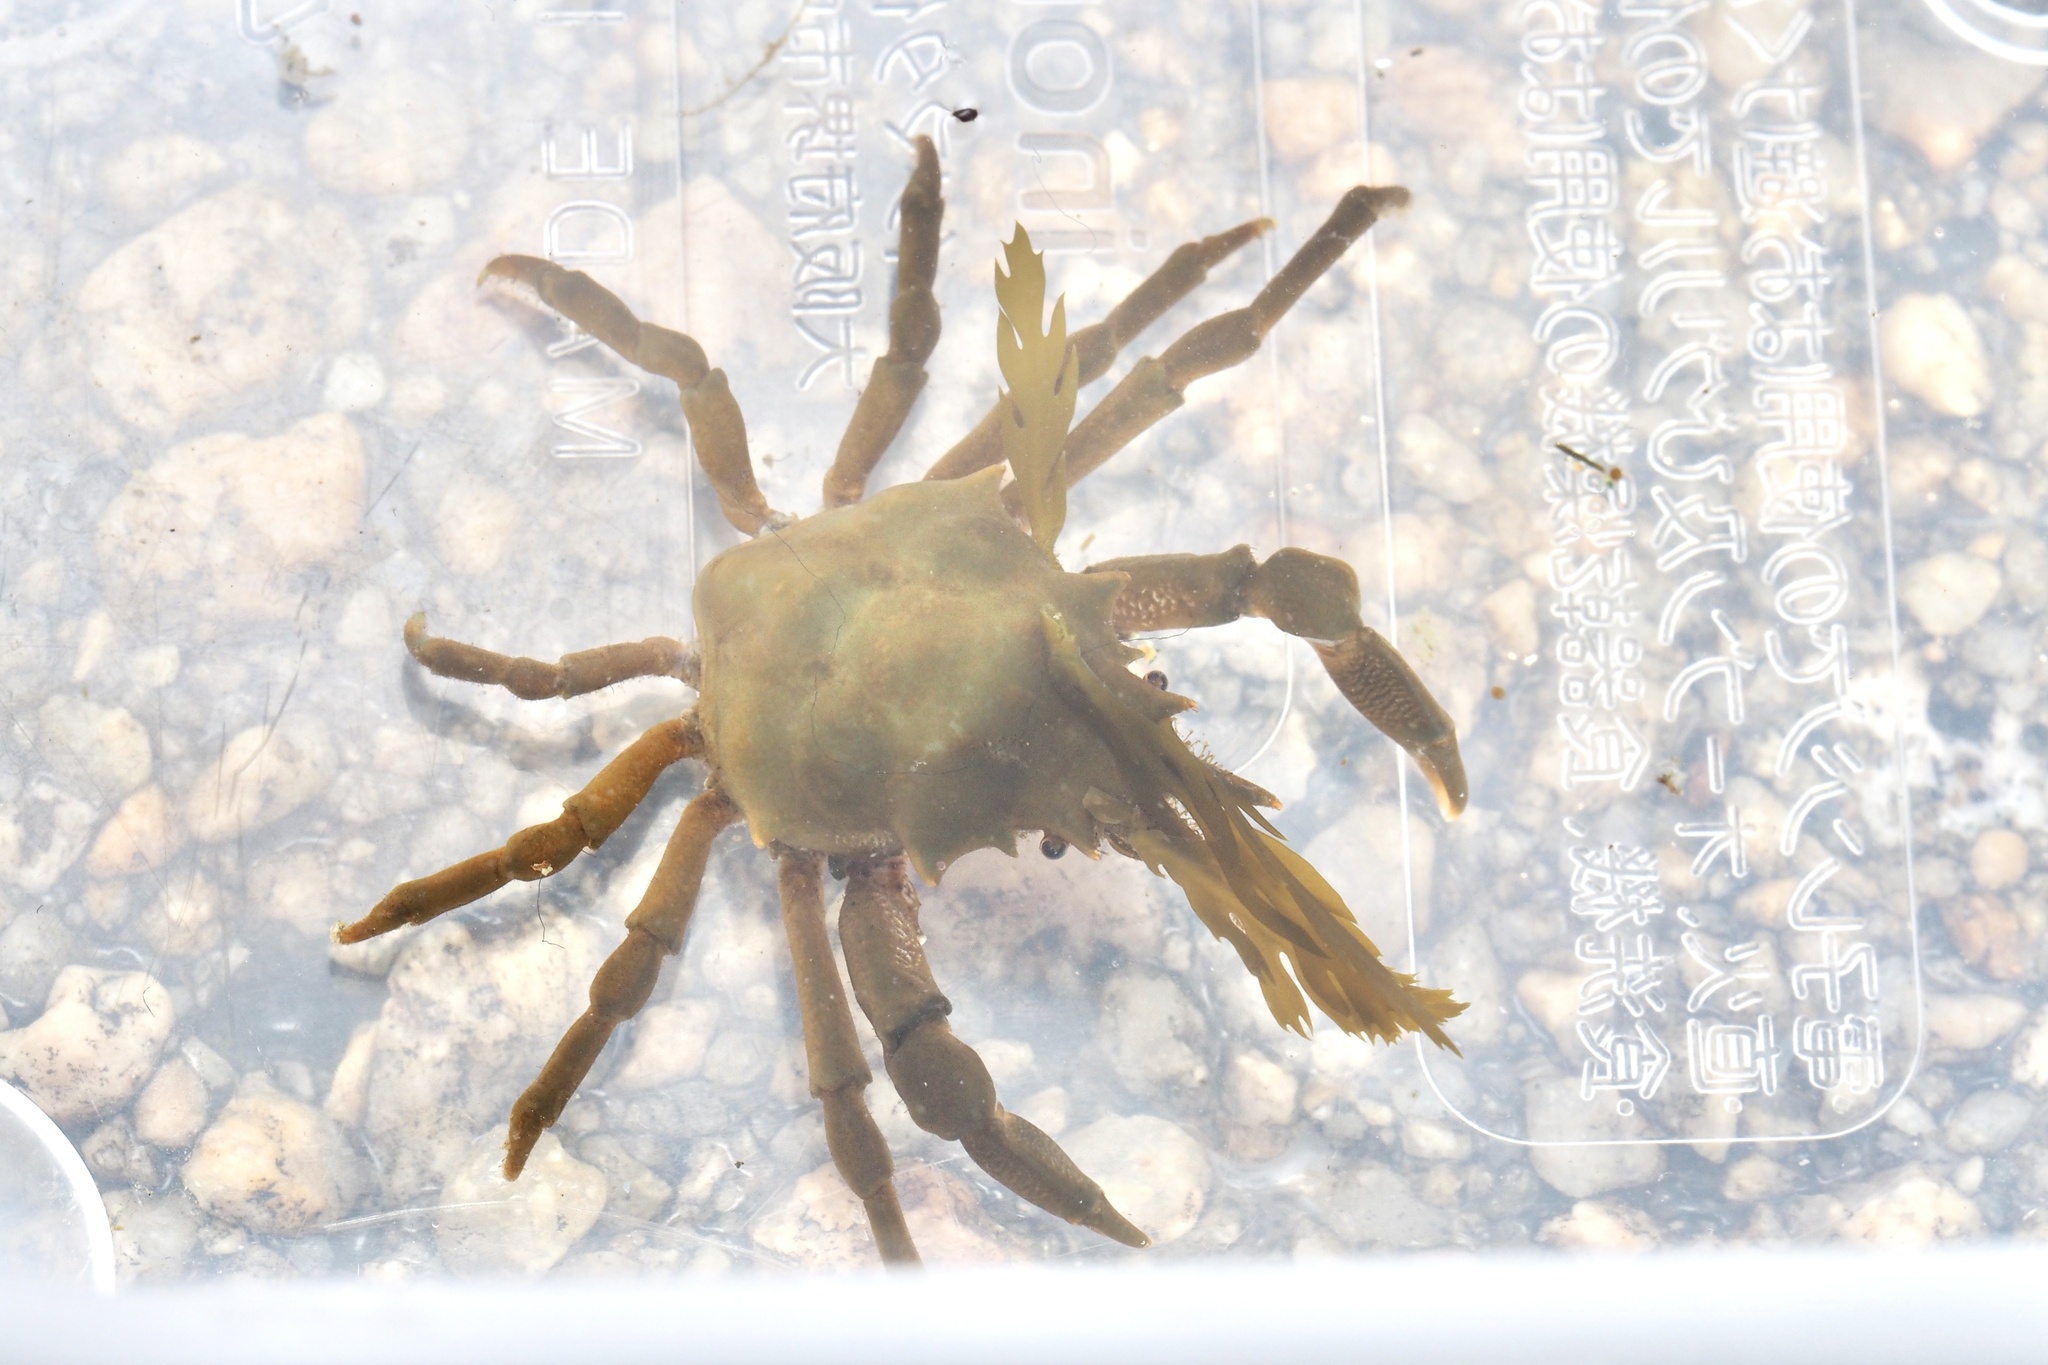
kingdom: Animalia
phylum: Arthropoda
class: Malacostraca
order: Decapoda
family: Epialtidae
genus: Scyra
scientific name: Scyra quadridens
